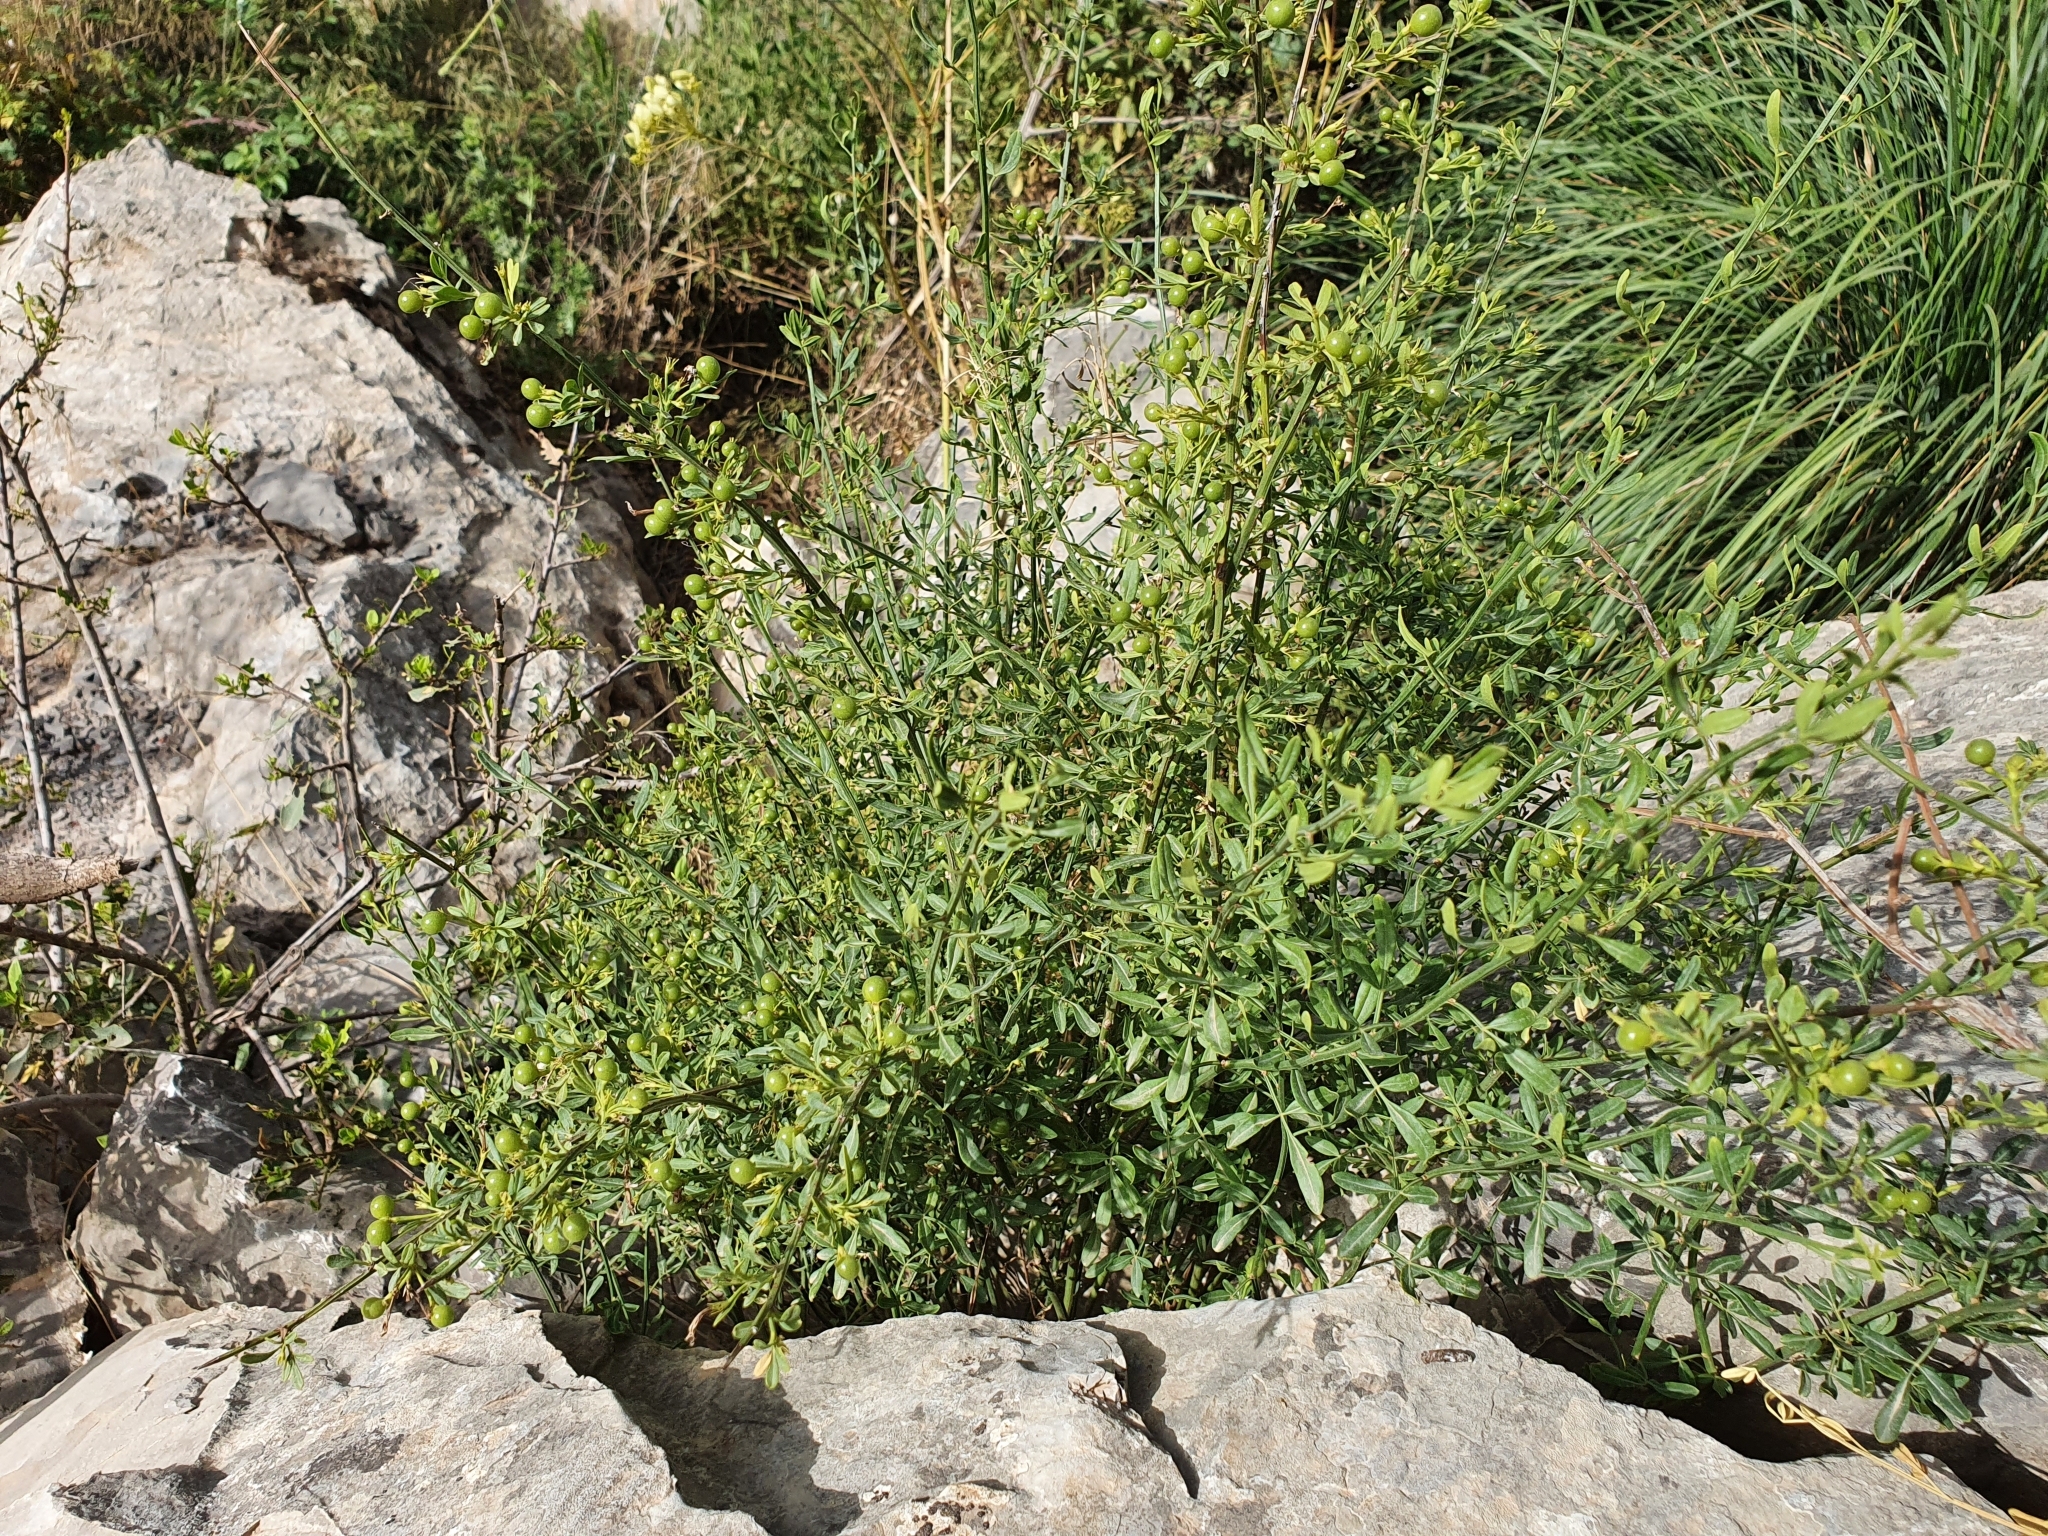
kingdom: Plantae
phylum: Tracheophyta
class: Magnoliopsida
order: Lamiales
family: Oleaceae
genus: Chrysojasminum
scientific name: Chrysojasminum fruticans
